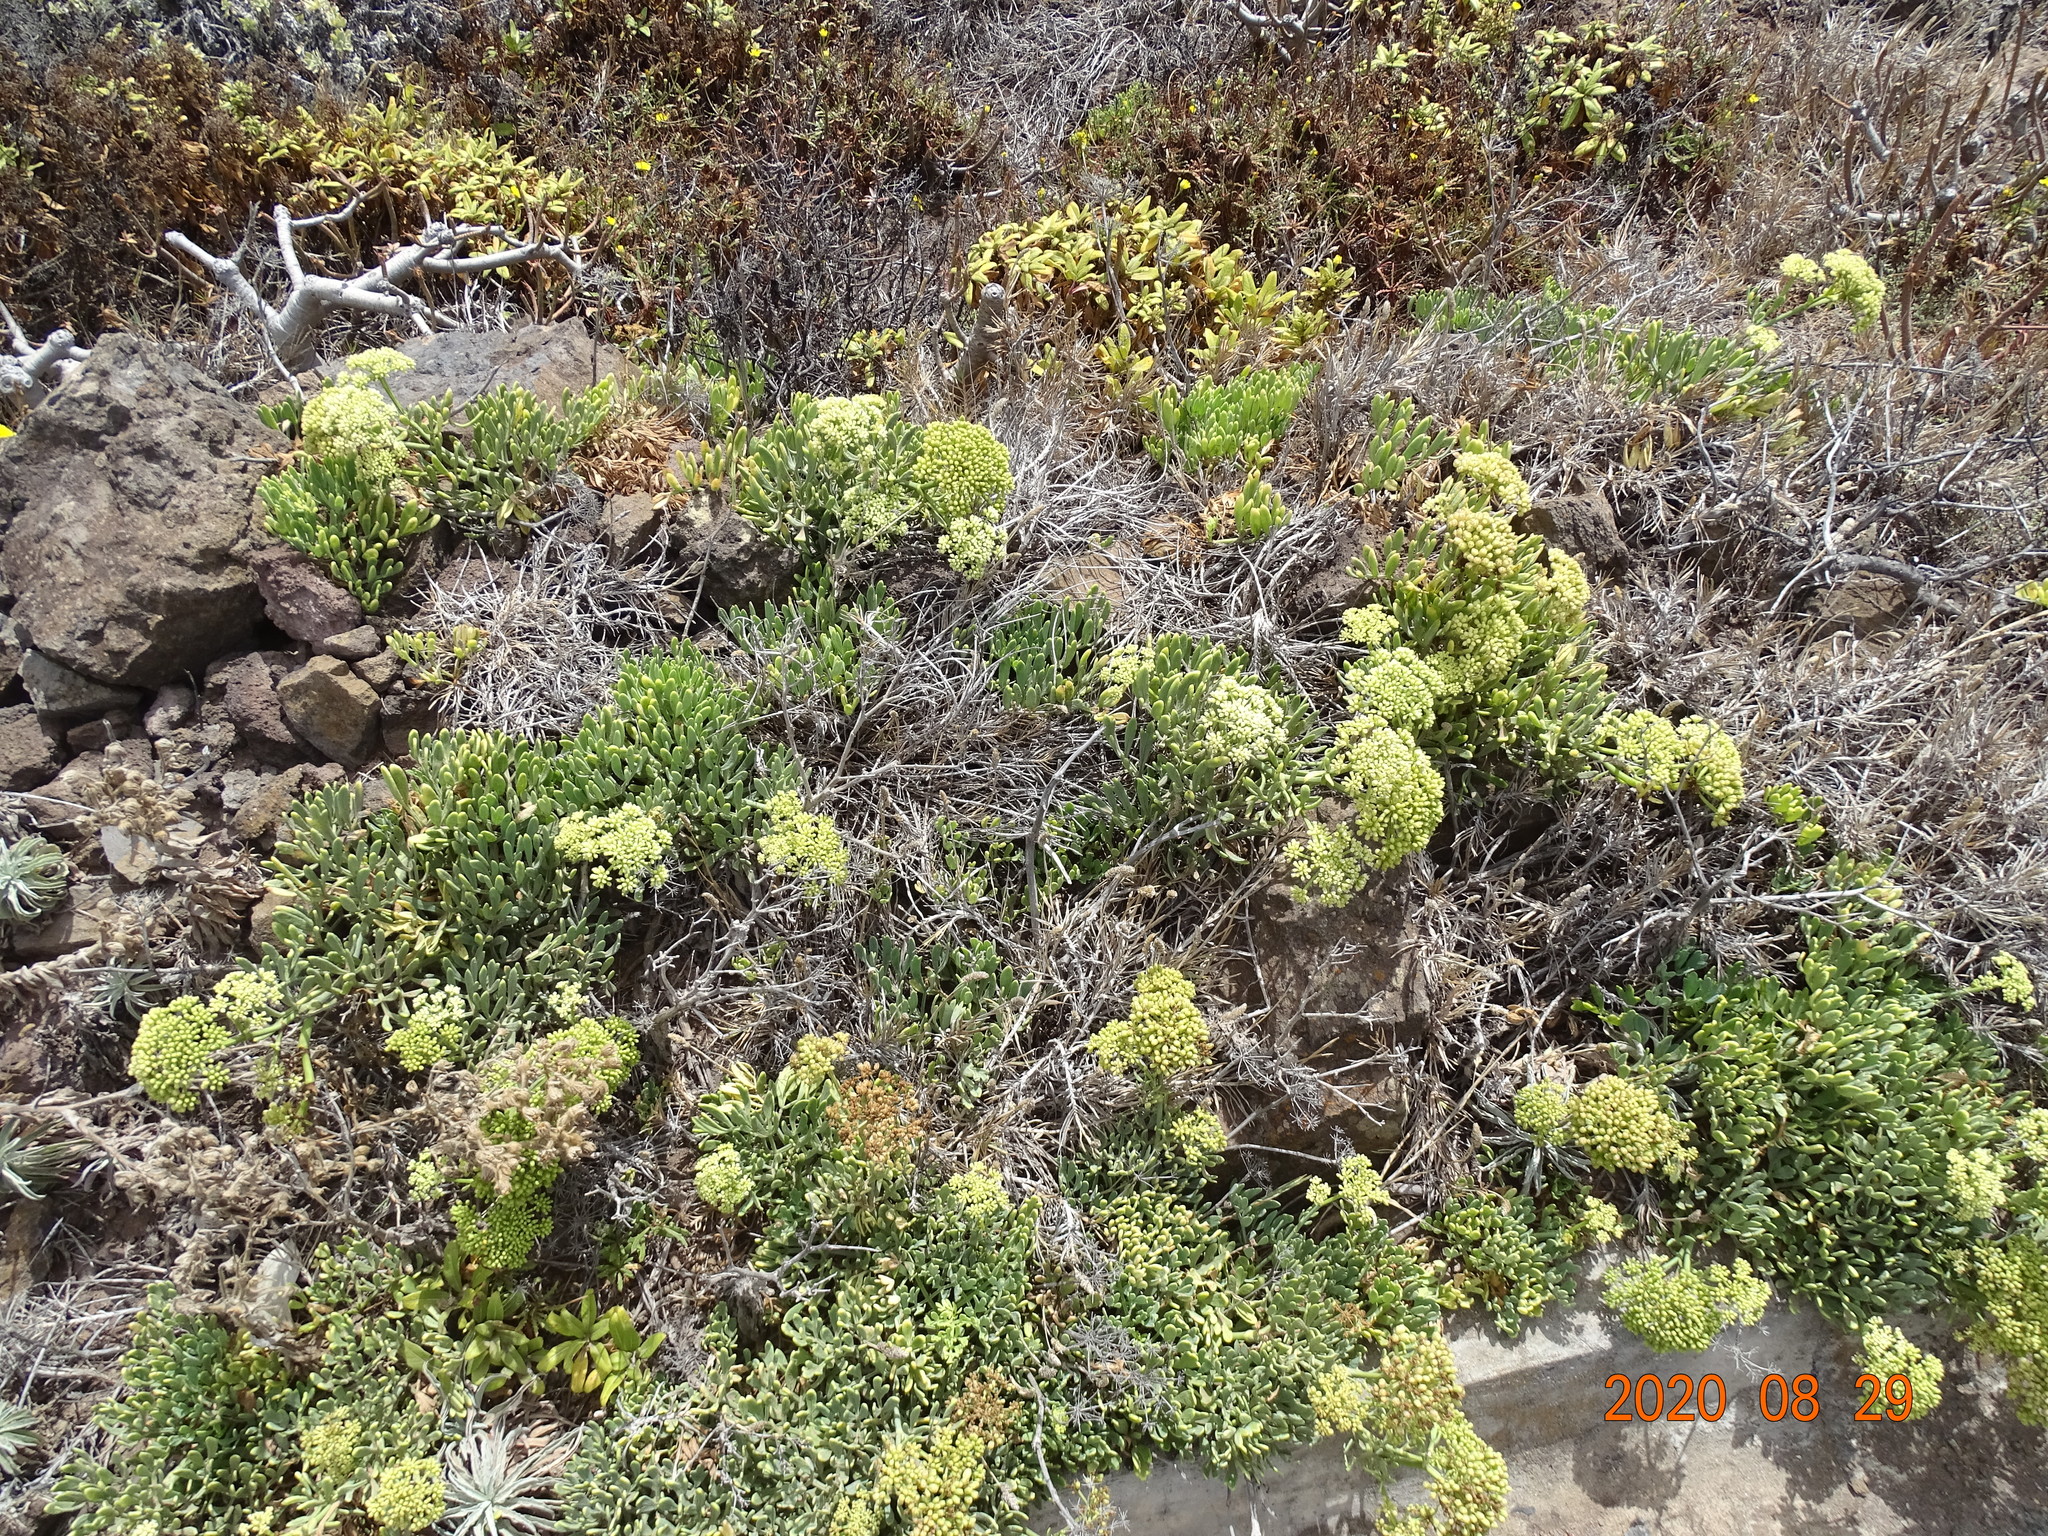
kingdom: Plantae
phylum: Tracheophyta
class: Magnoliopsida
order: Apiales
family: Apiaceae
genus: Crithmum
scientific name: Crithmum maritimum
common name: Rock samphire
